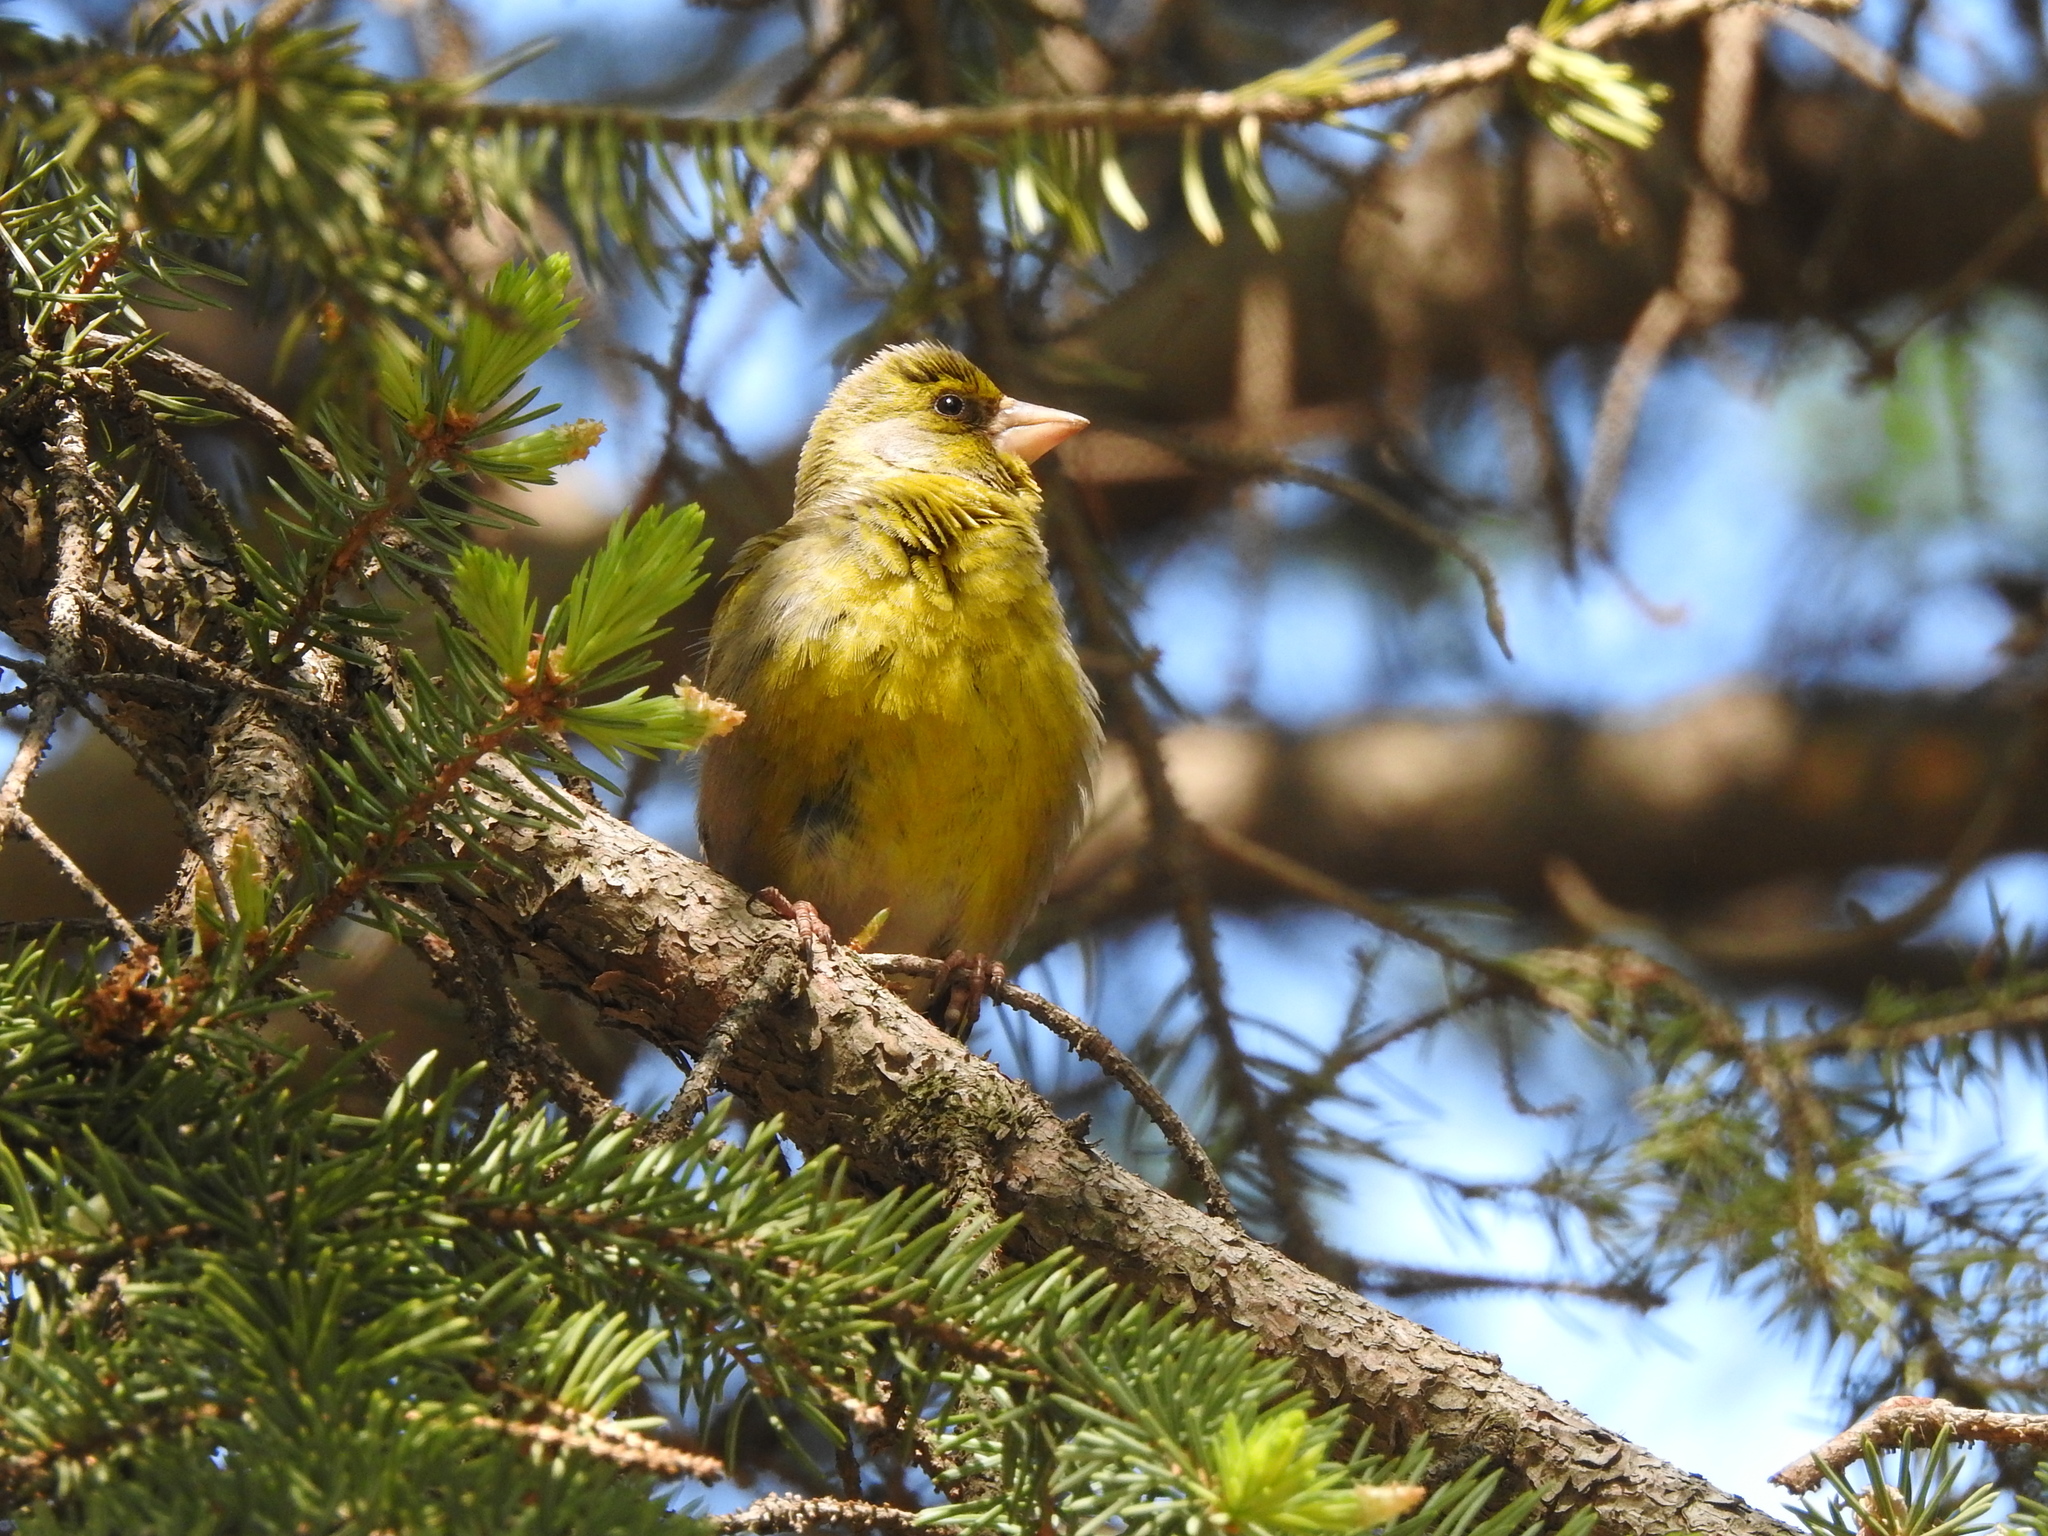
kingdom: Plantae
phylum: Tracheophyta
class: Liliopsida
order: Poales
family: Poaceae
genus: Chloris
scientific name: Chloris chloris
